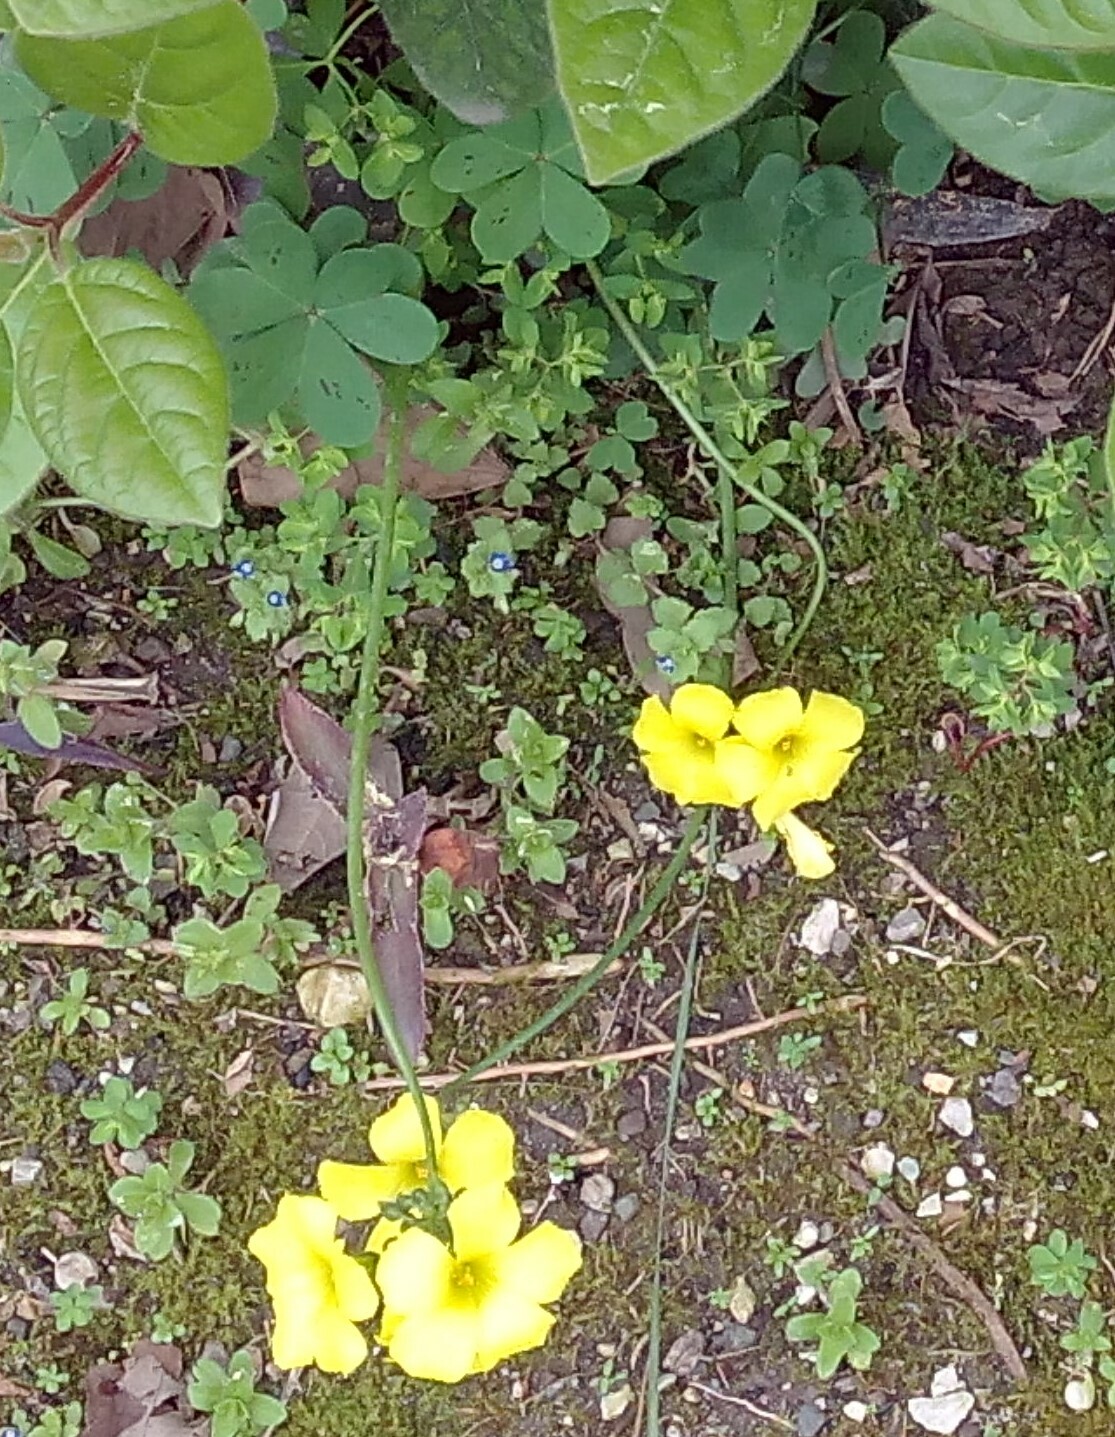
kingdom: Plantae
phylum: Tracheophyta
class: Magnoliopsida
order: Oxalidales
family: Oxalidaceae
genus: Oxalis
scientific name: Oxalis pes-caprae
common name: Bermuda-buttercup
